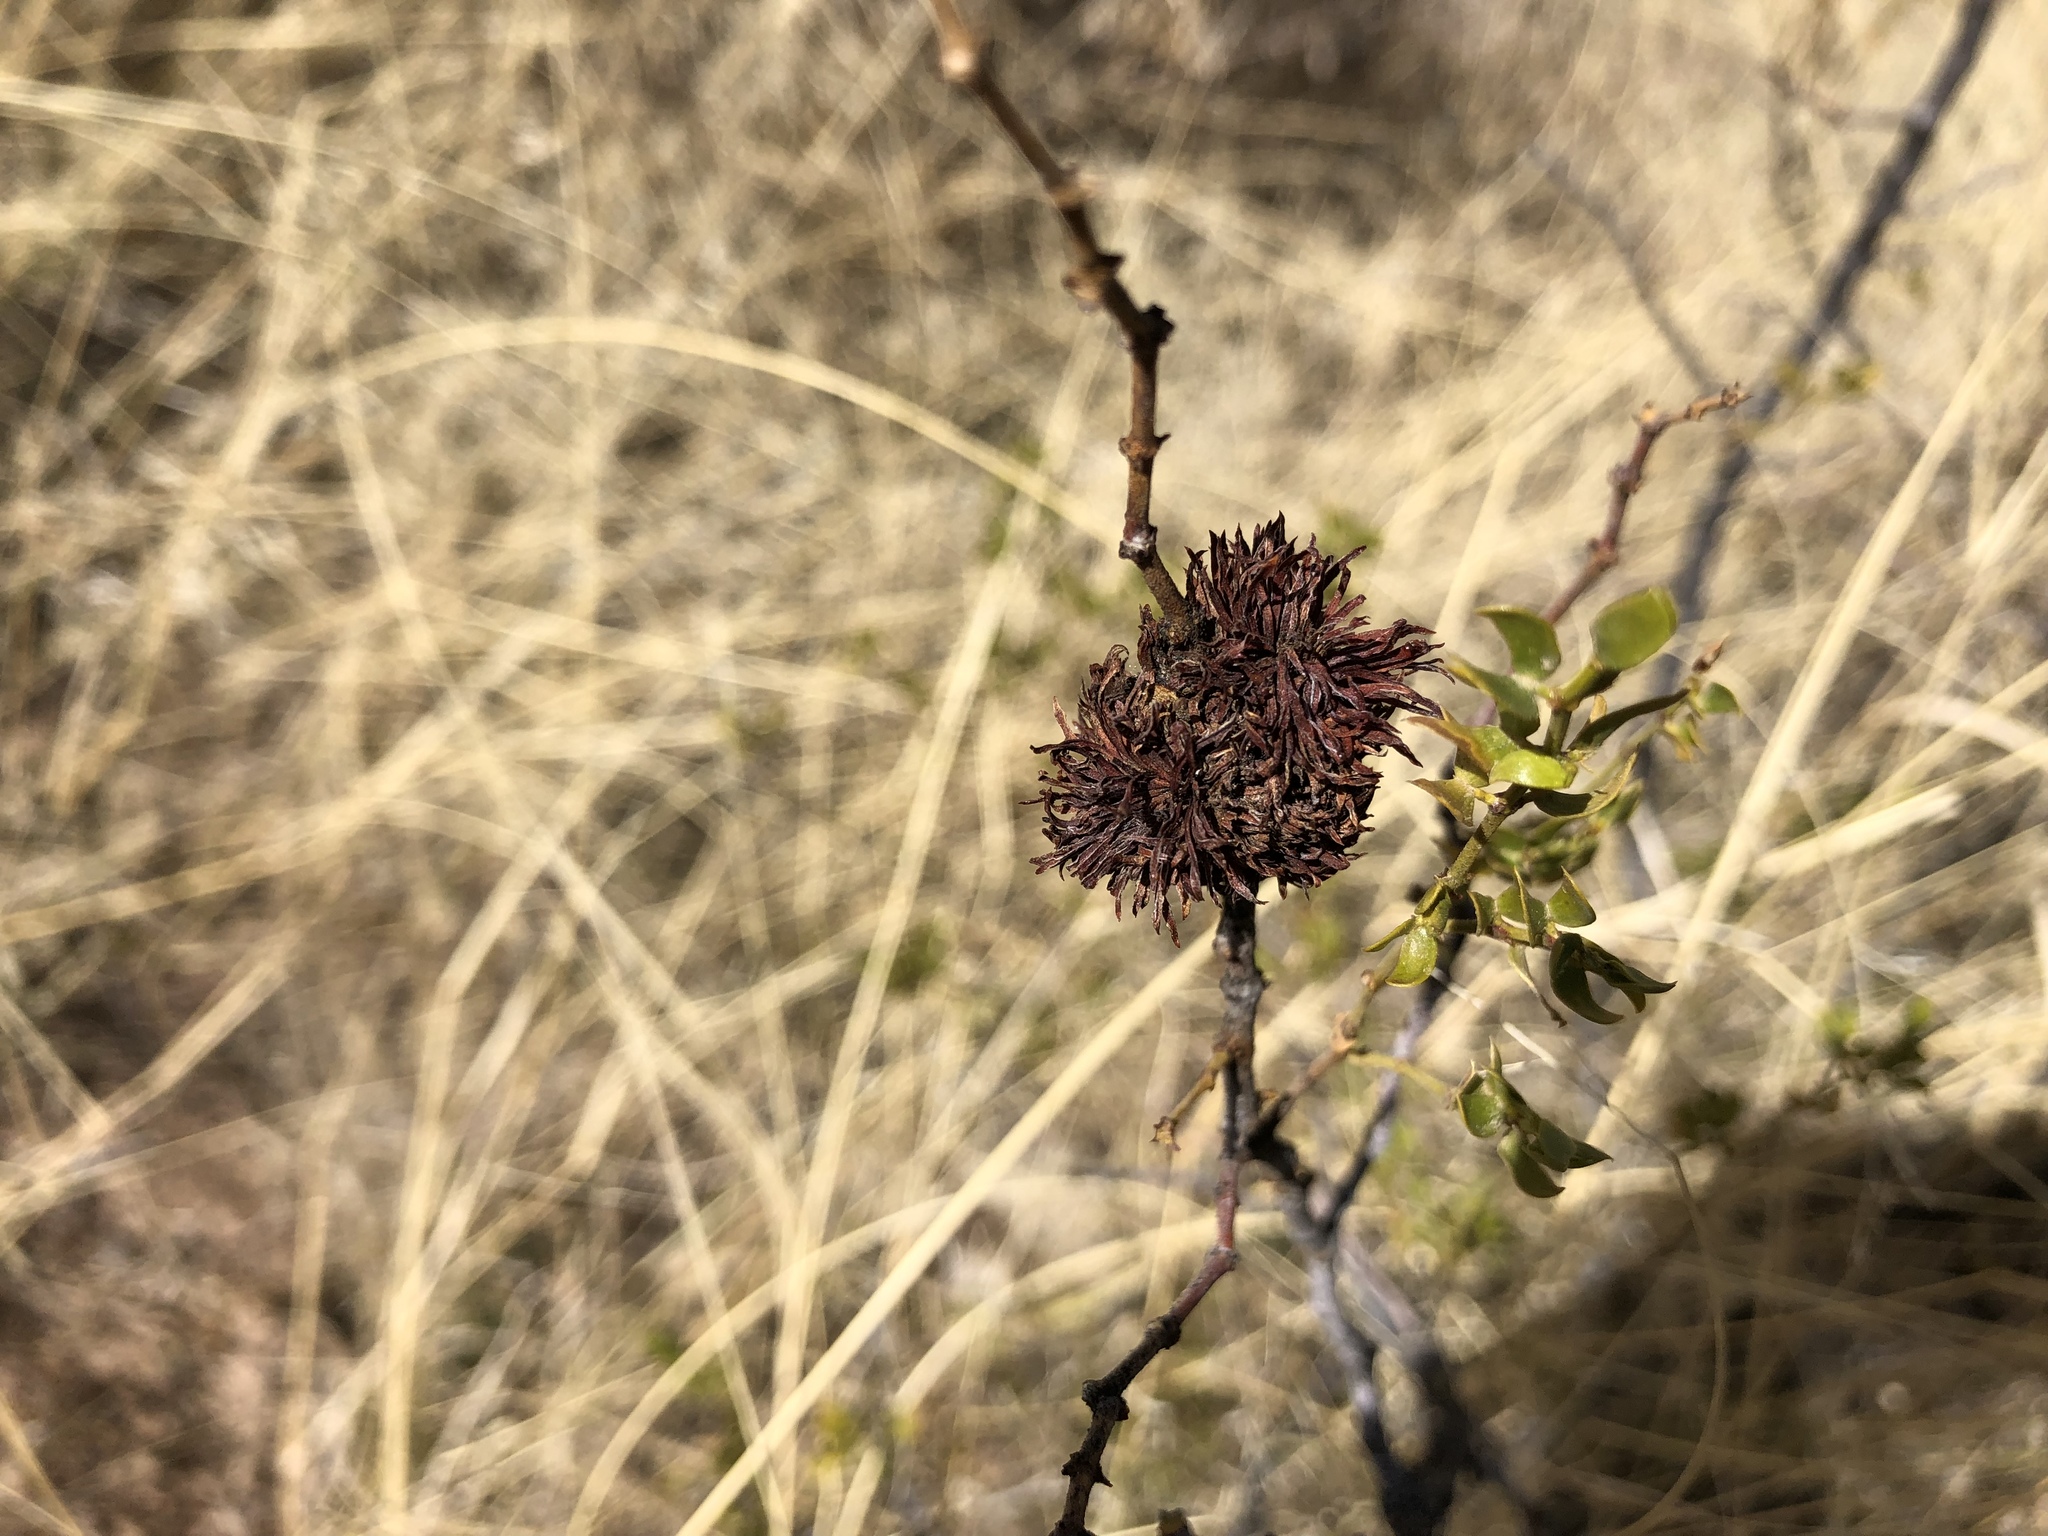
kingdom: Animalia
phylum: Arthropoda
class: Insecta
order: Diptera
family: Cecidomyiidae
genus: Asphondylia
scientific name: Asphondylia auripila
